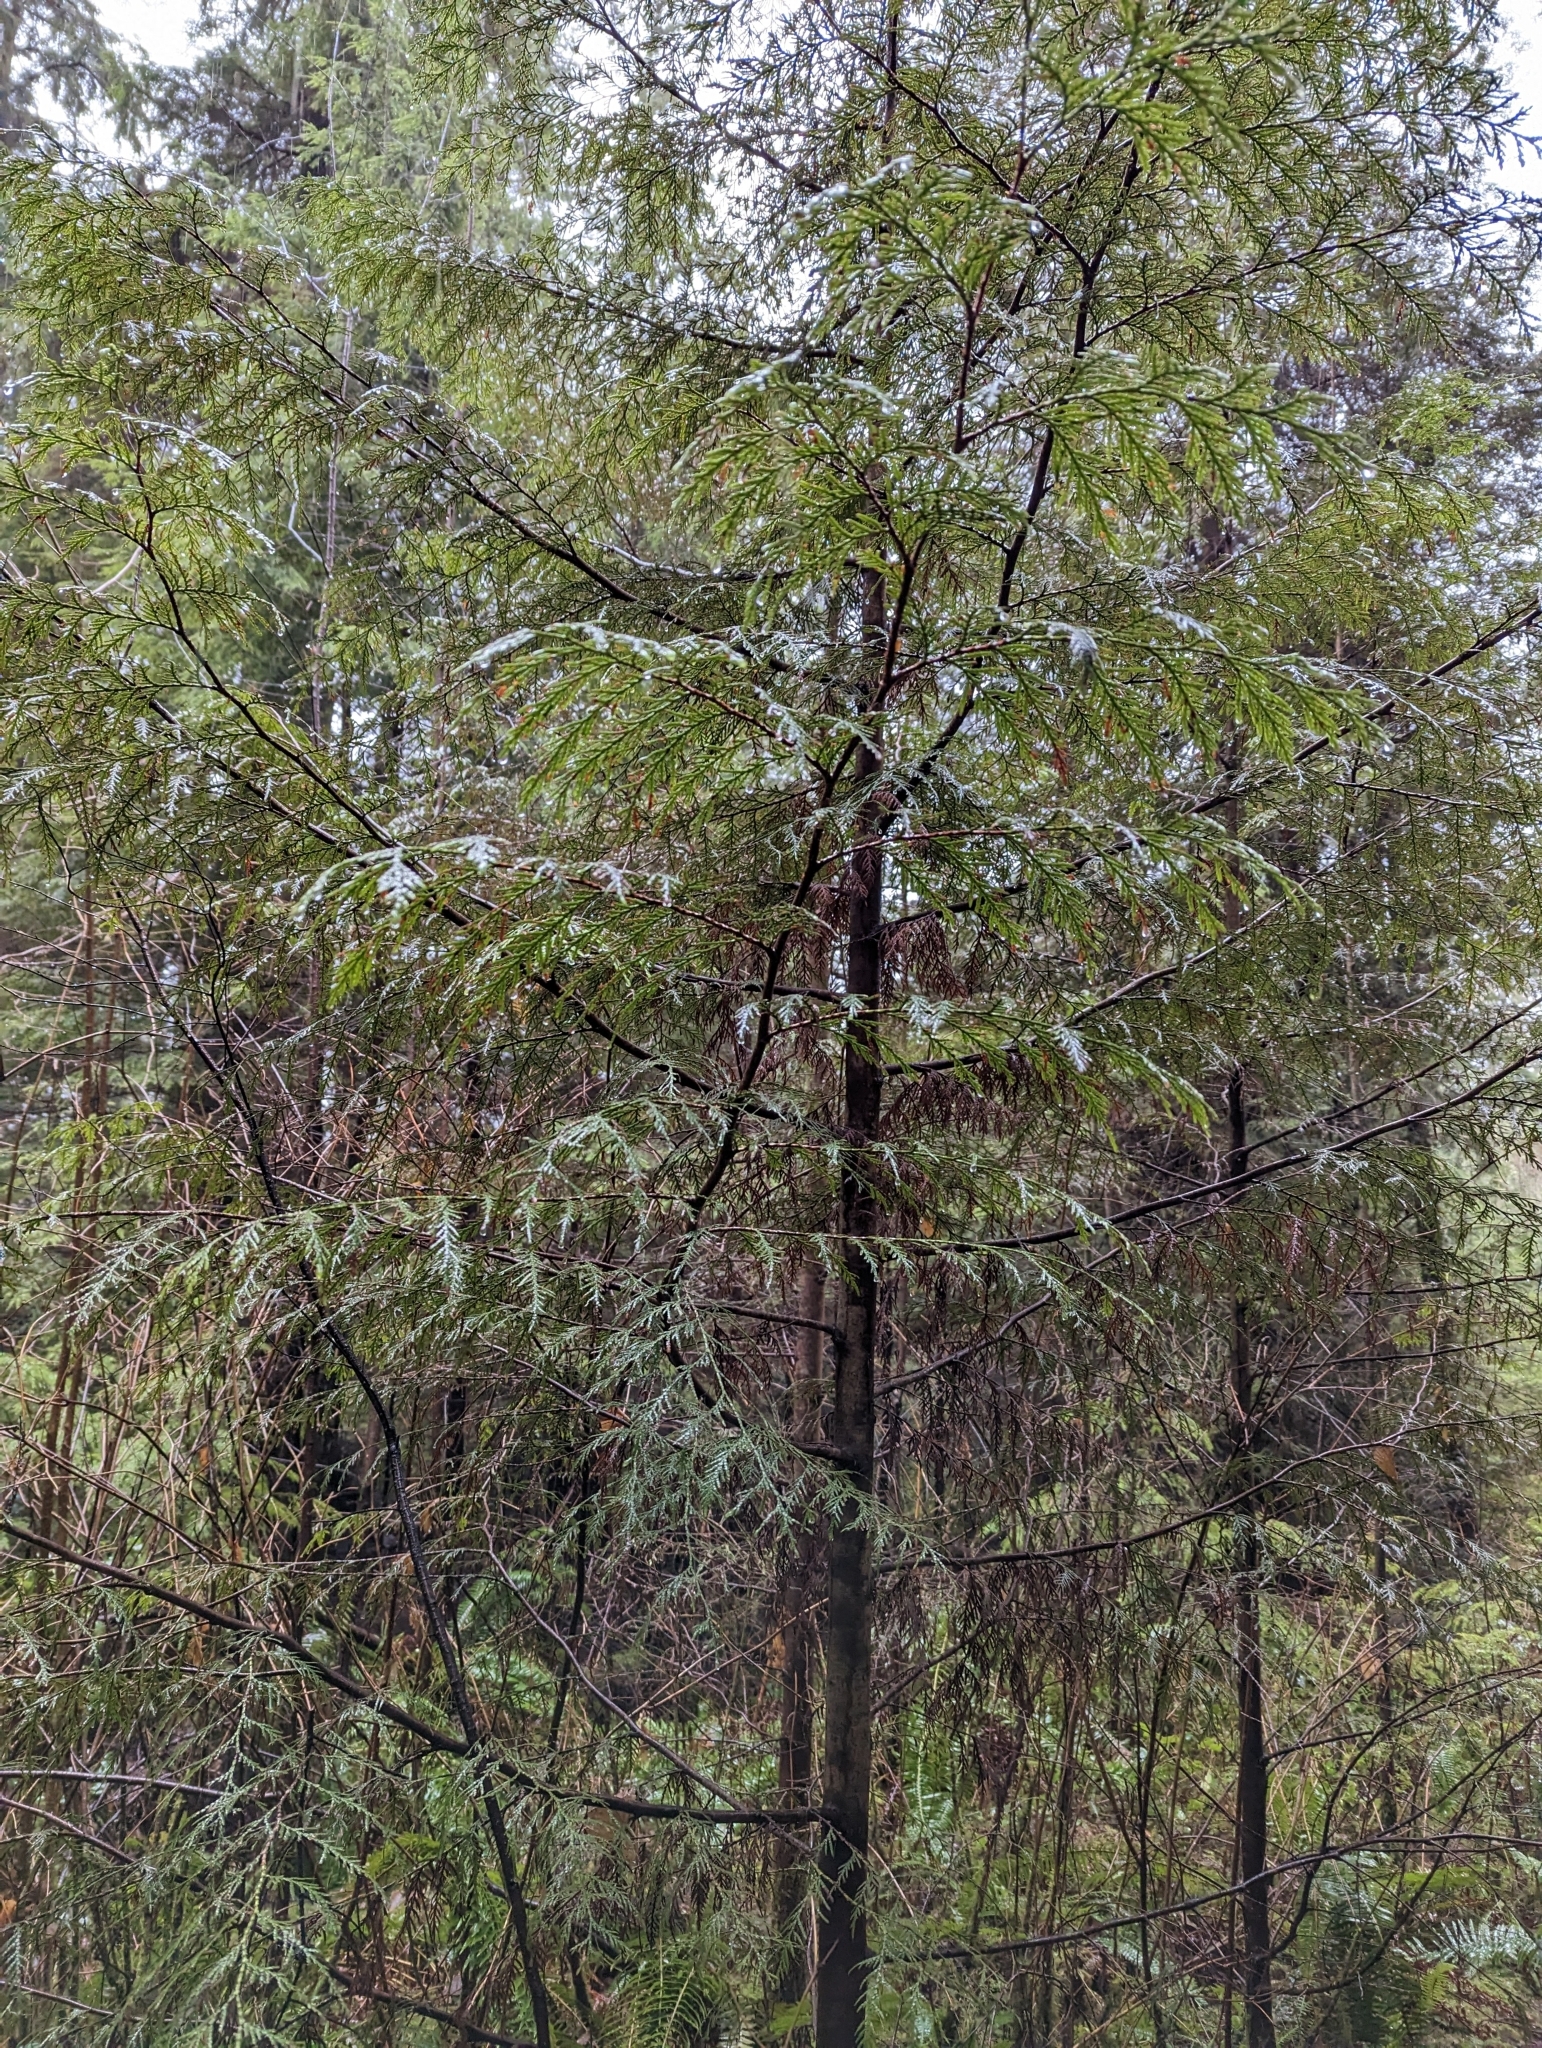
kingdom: Plantae
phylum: Tracheophyta
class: Pinopsida
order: Pinales
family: Cupressaceae
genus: Thuja
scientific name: Thuja plicata
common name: Western red-cedar
